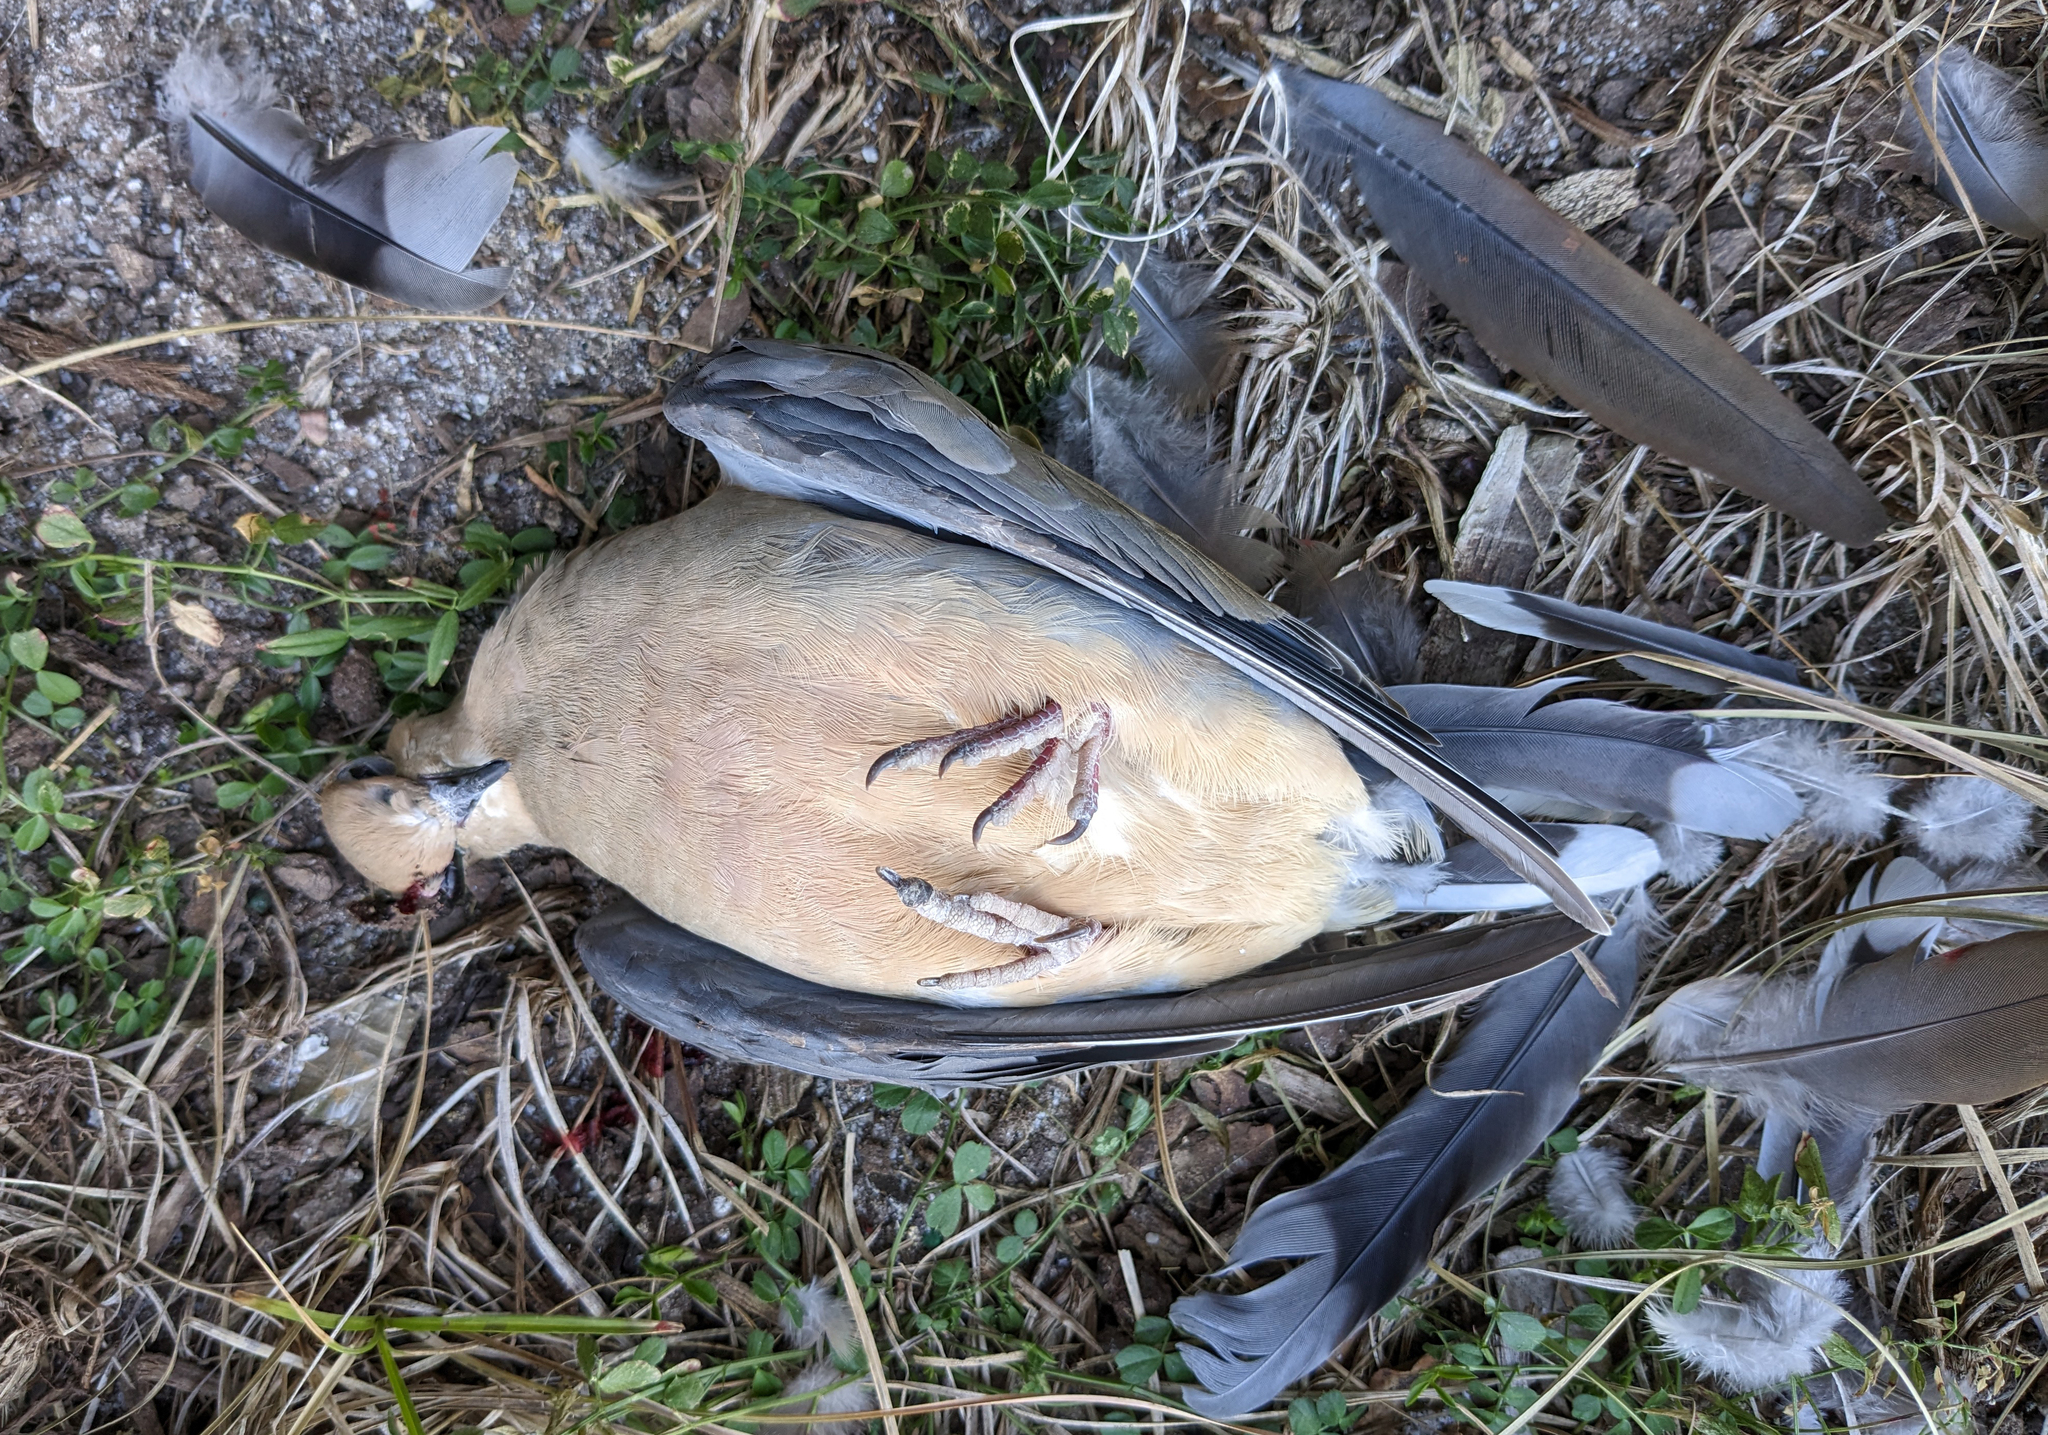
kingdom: Animalia
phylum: Chordata
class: Aves
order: Columbiformes
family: Columbidae
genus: Zenaida
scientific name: Zenaida macroura
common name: Mourning dove
